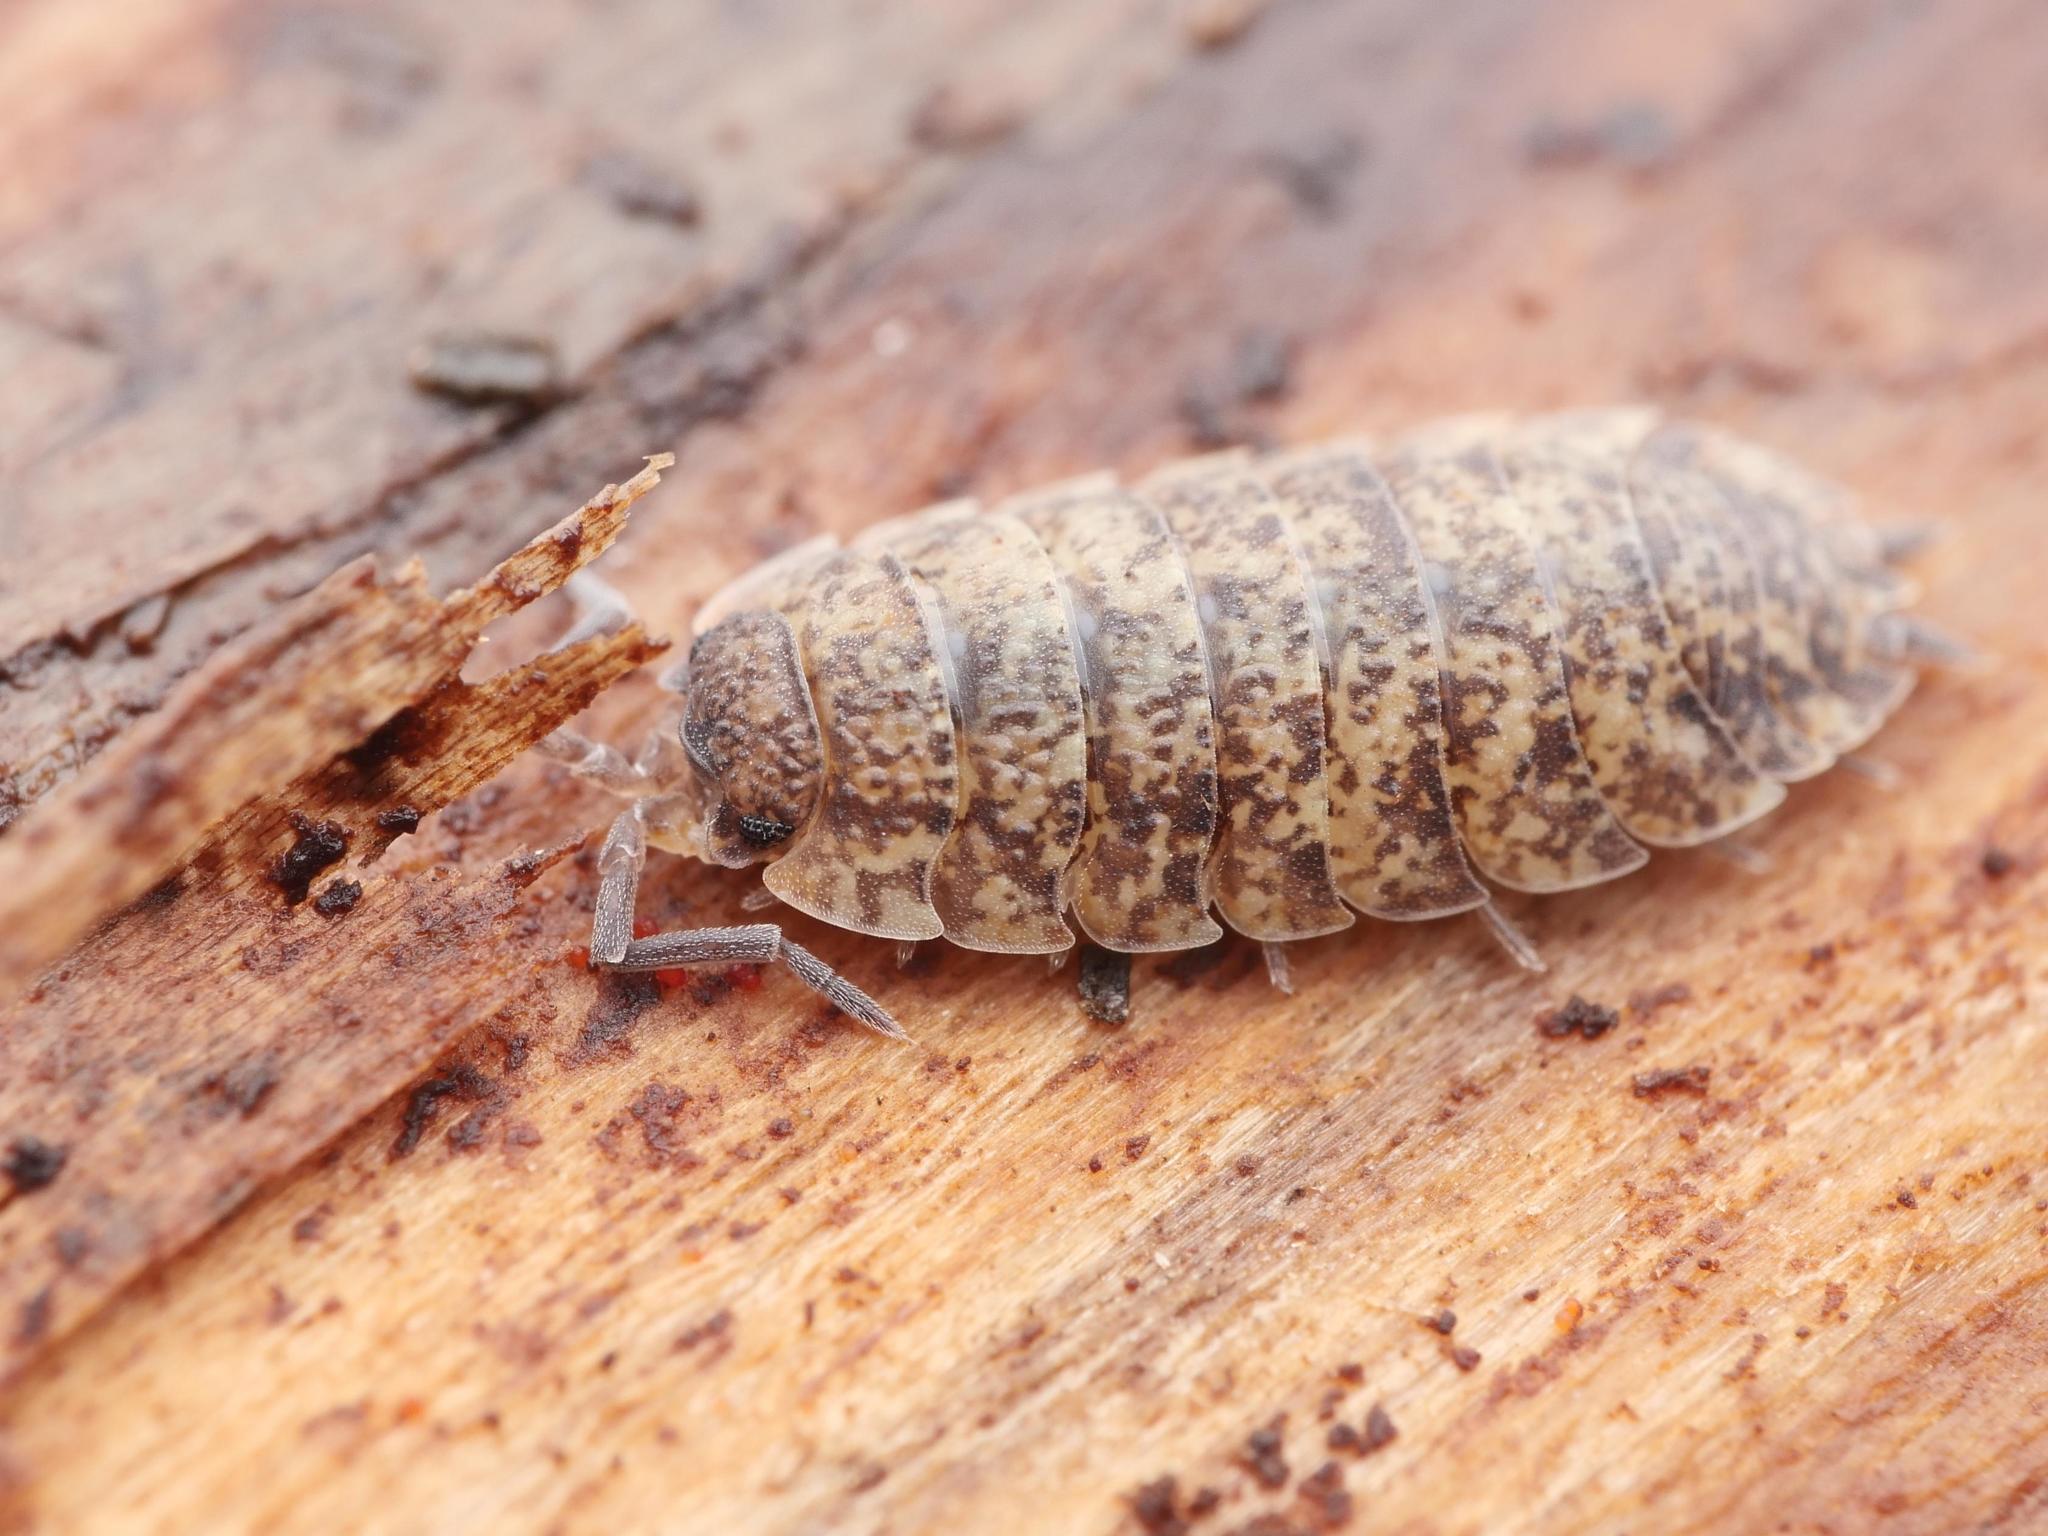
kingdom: Animalia
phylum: Arthropoda
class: Malacostraca
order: Isopoda
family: Porcellionidae
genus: Porcellio
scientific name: Porcellio scaber
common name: Common rough woodlouse
